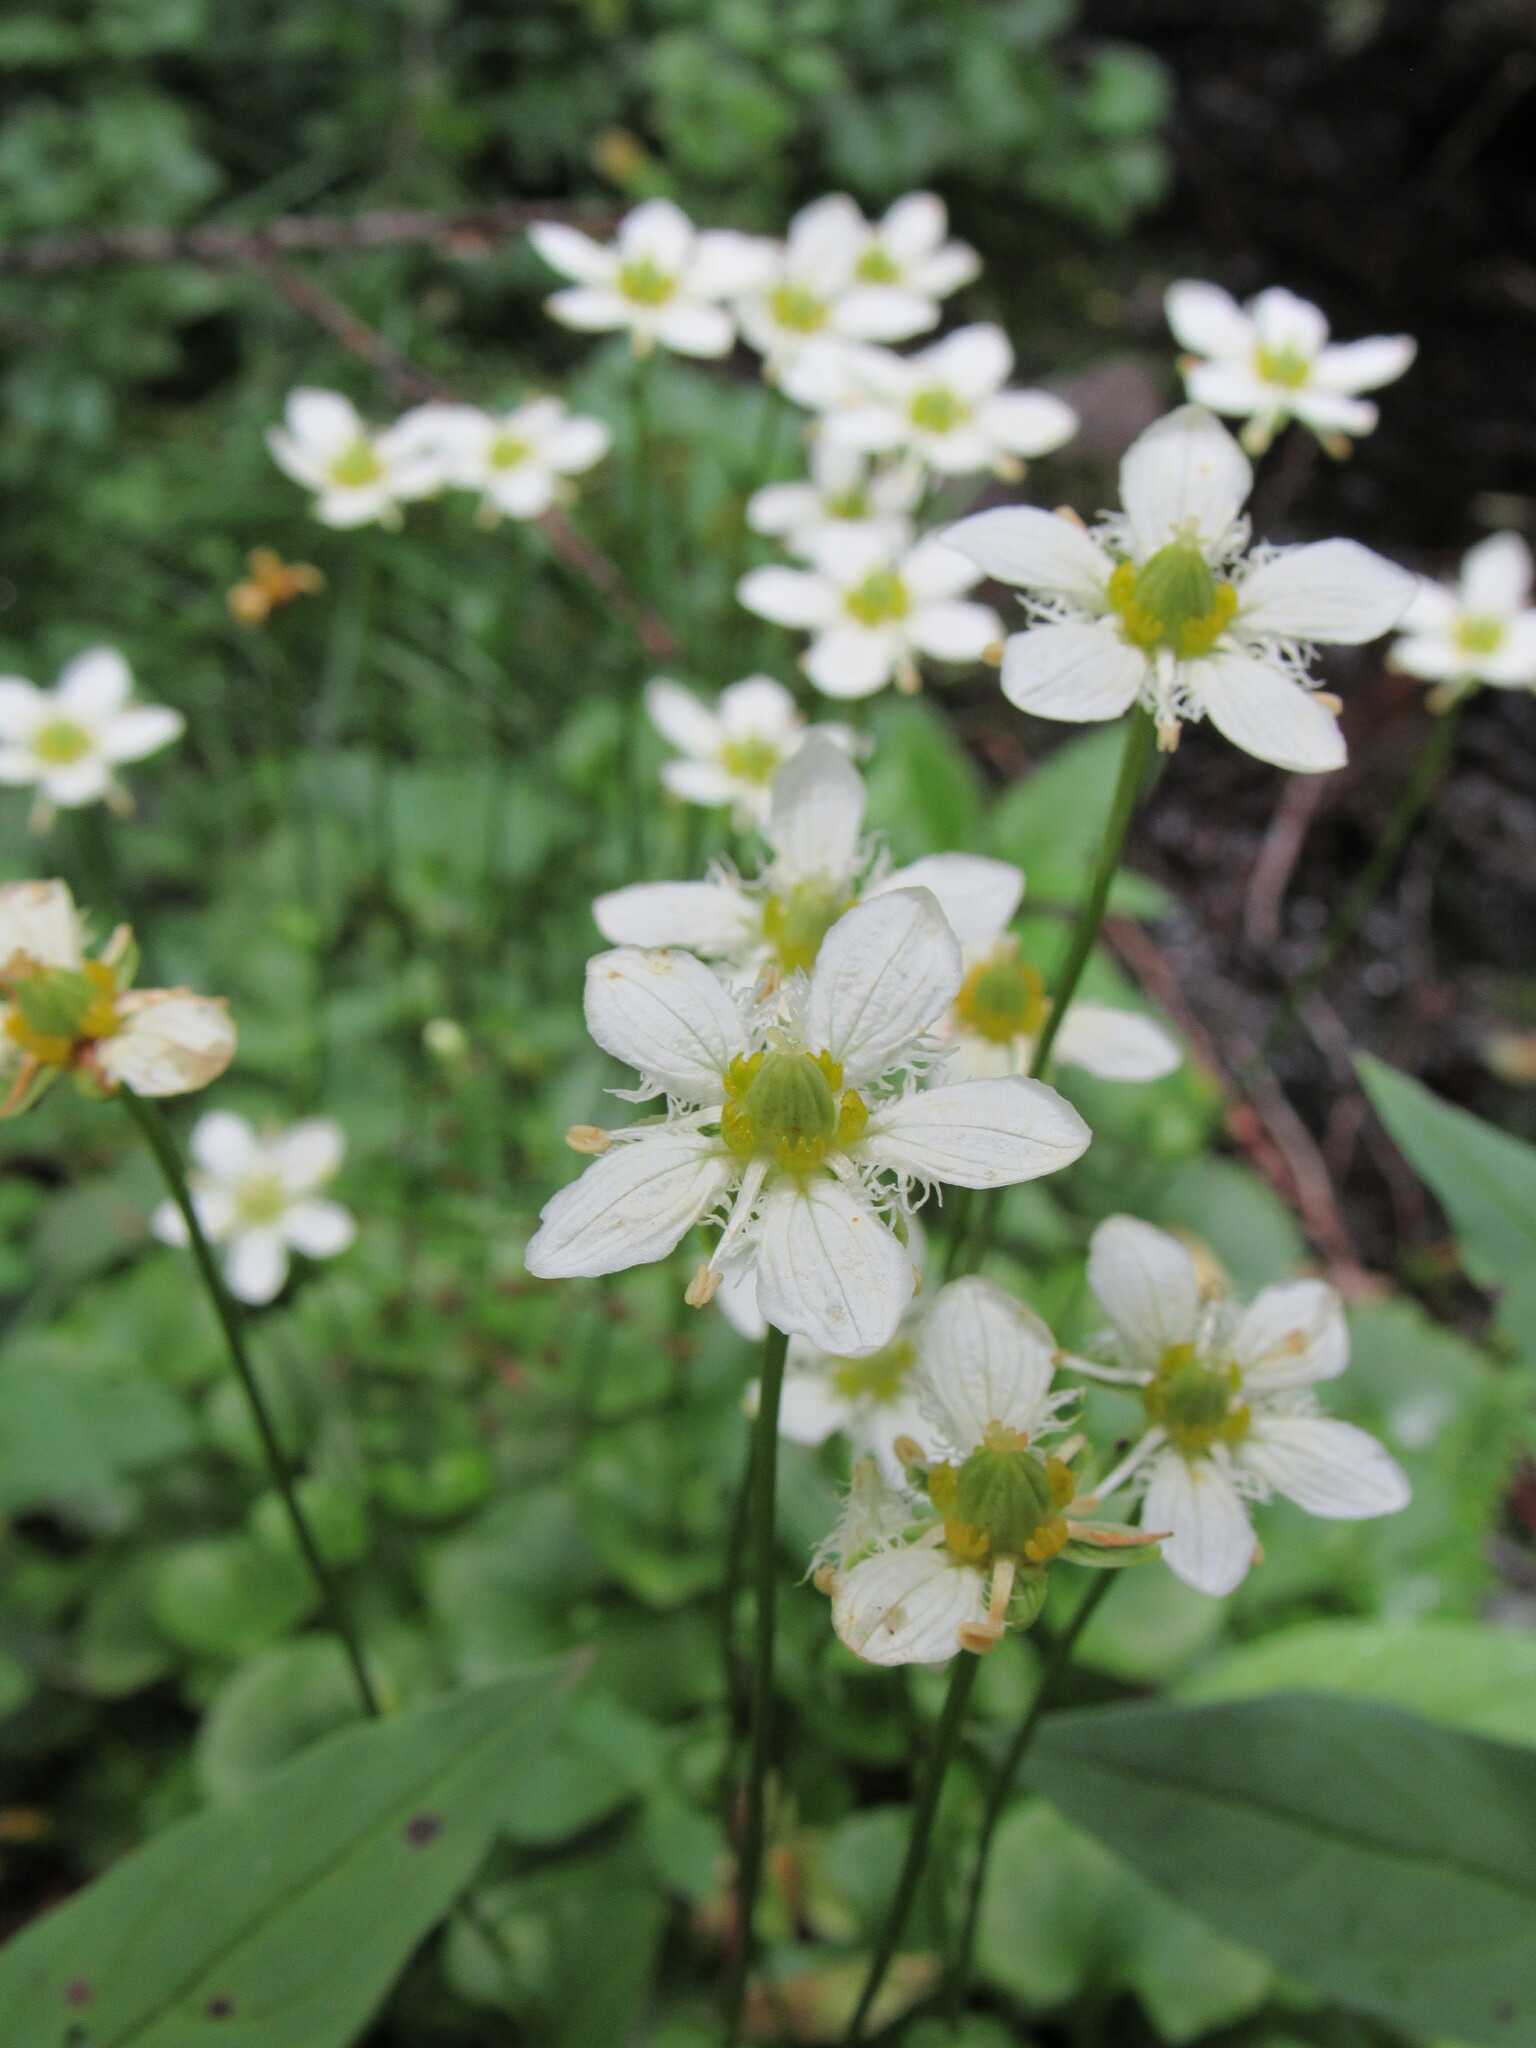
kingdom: Plantae
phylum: Tracheophyta
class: Magnoliopsida
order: Celastrales
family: Parnassiaceae
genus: Parnassia
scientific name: Parnassia fimbriata
